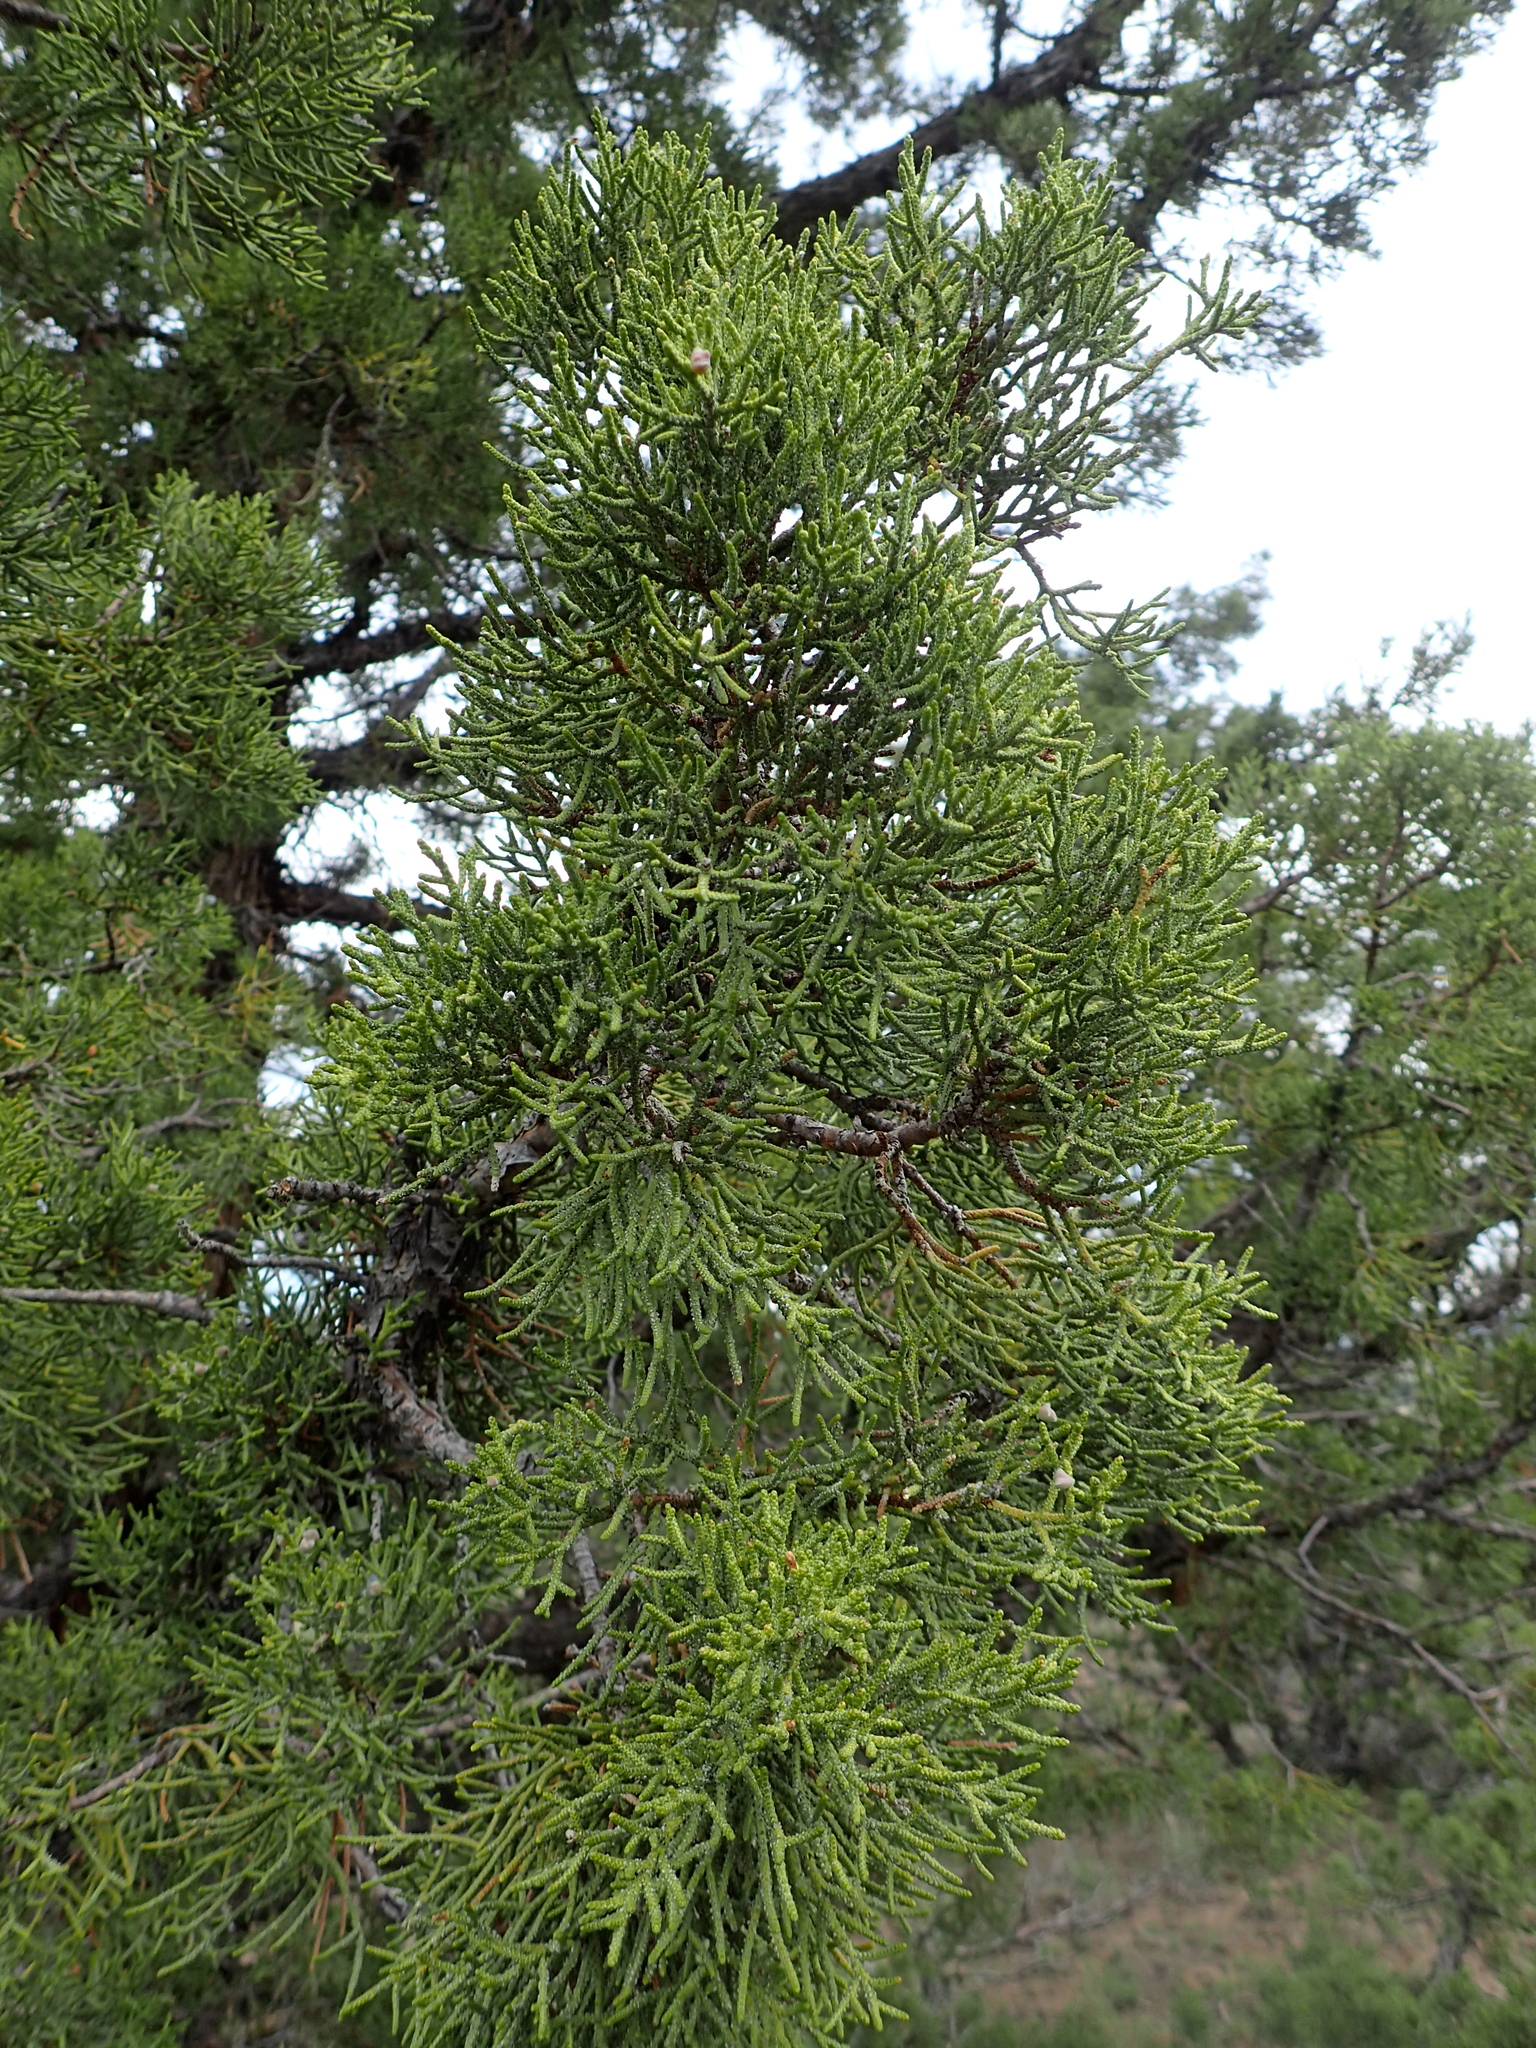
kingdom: Plantae
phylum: Tracheophyta
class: Pinopsida
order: Pinales
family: Cupressaceae
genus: Juniperus
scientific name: Juniperus occidentalis
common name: Western juniper
